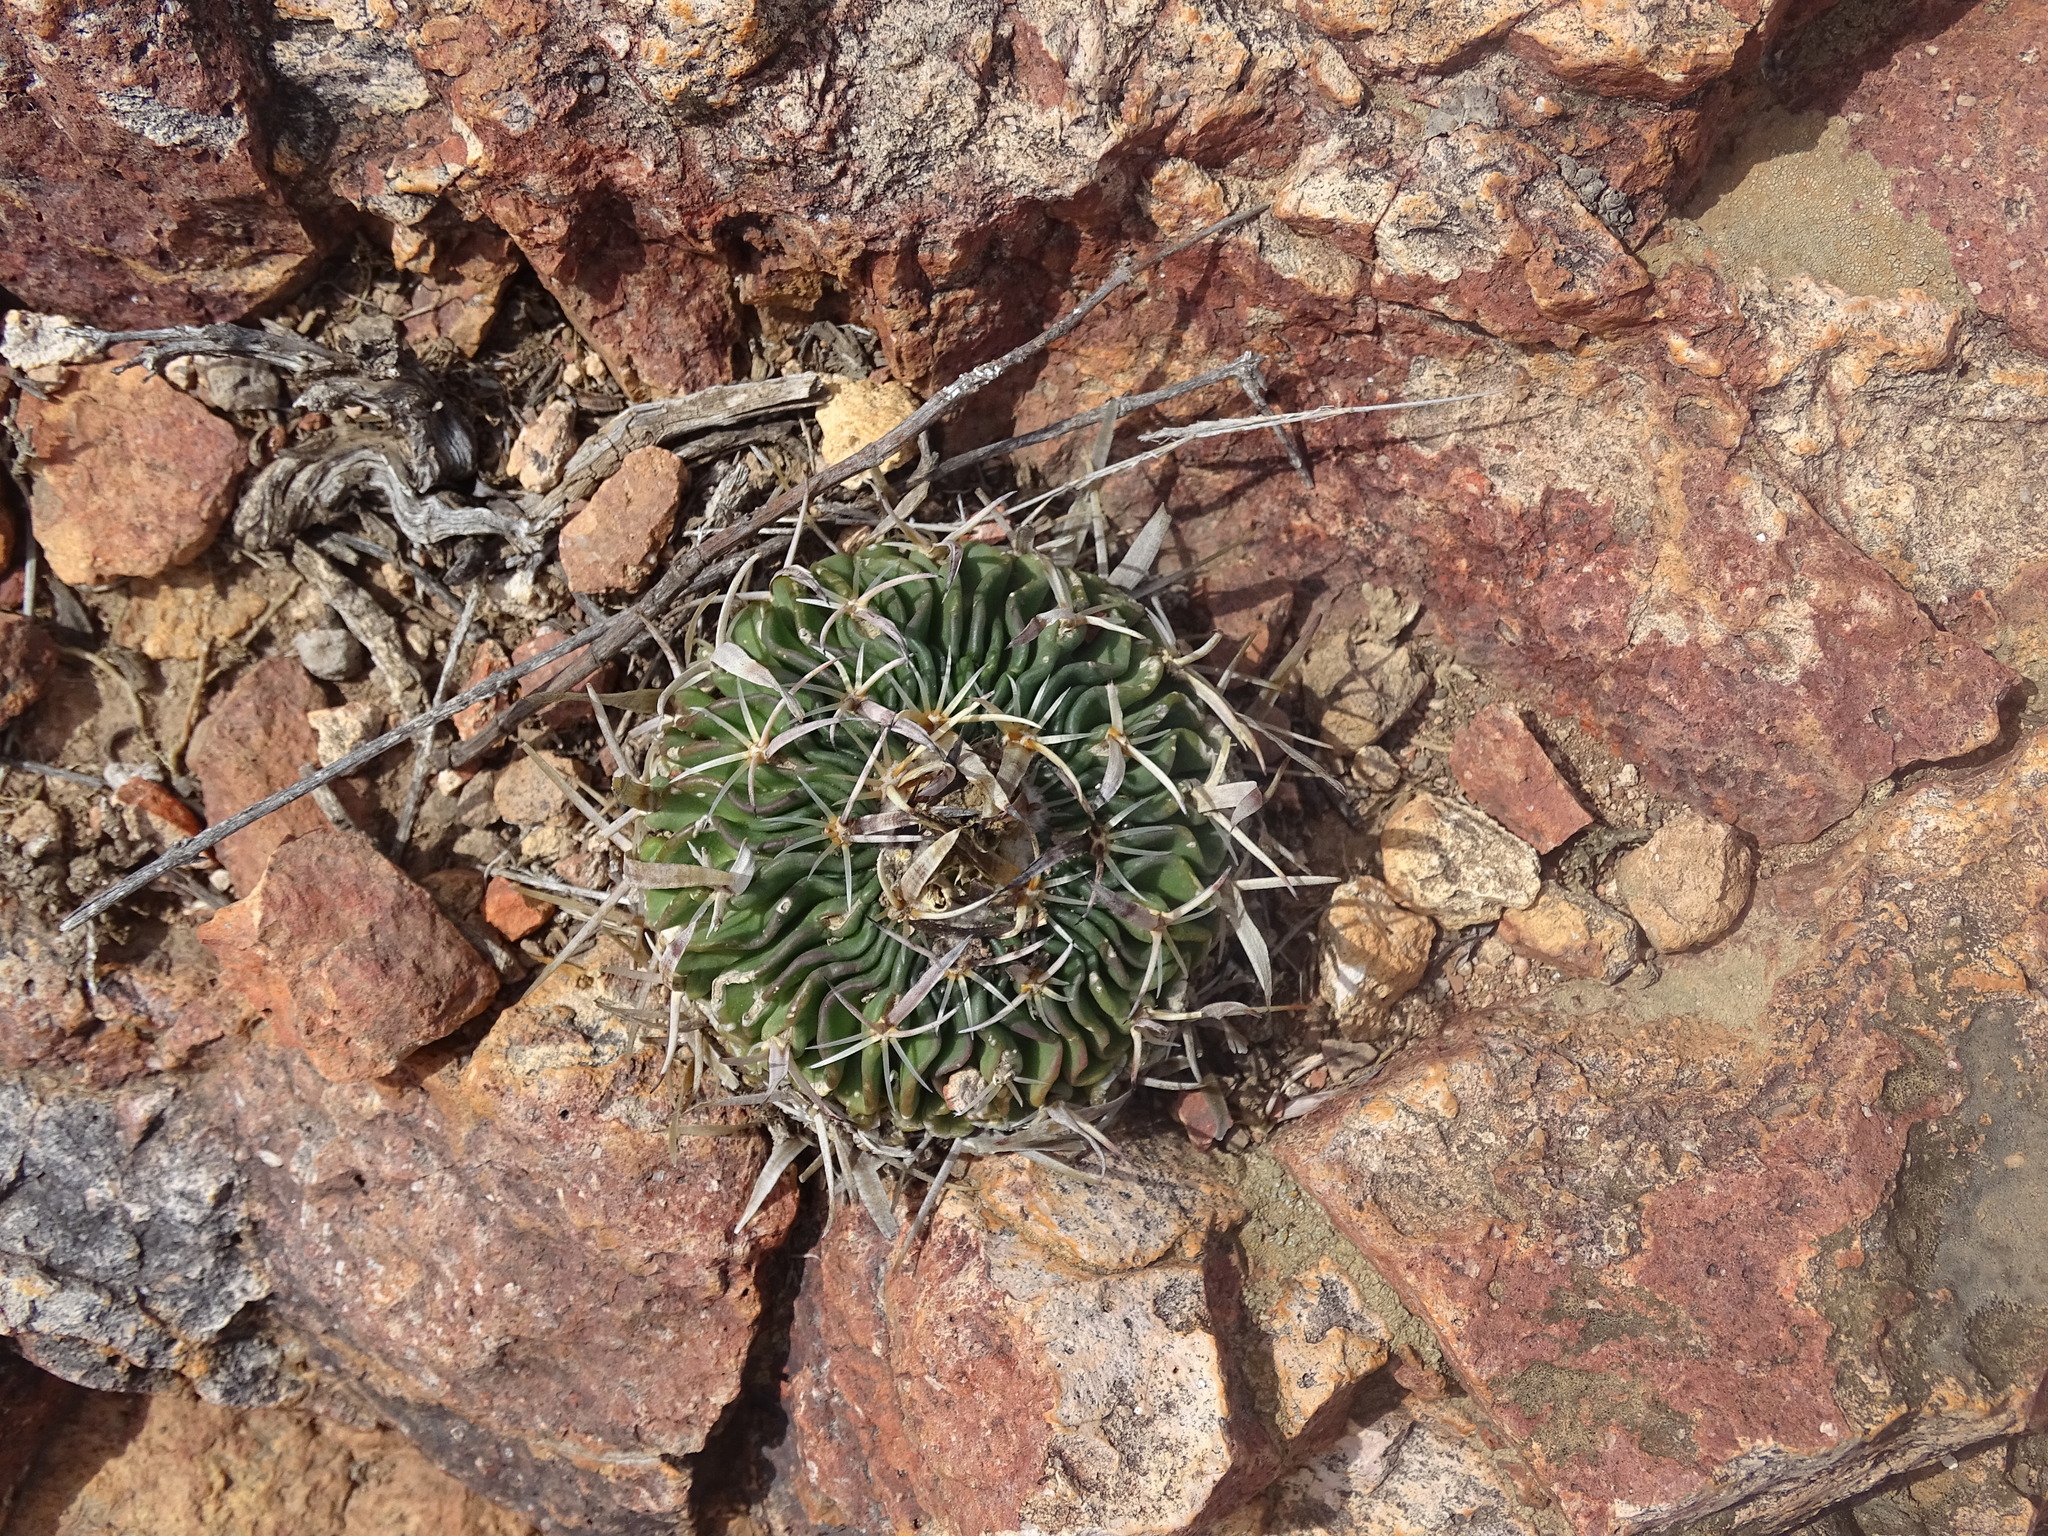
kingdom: Plantae
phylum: Tracheophyta
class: Magnoliopsida
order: Caryophyllales
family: Cactaceae
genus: Stenocactus
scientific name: Stenocactus phyllacanthus
